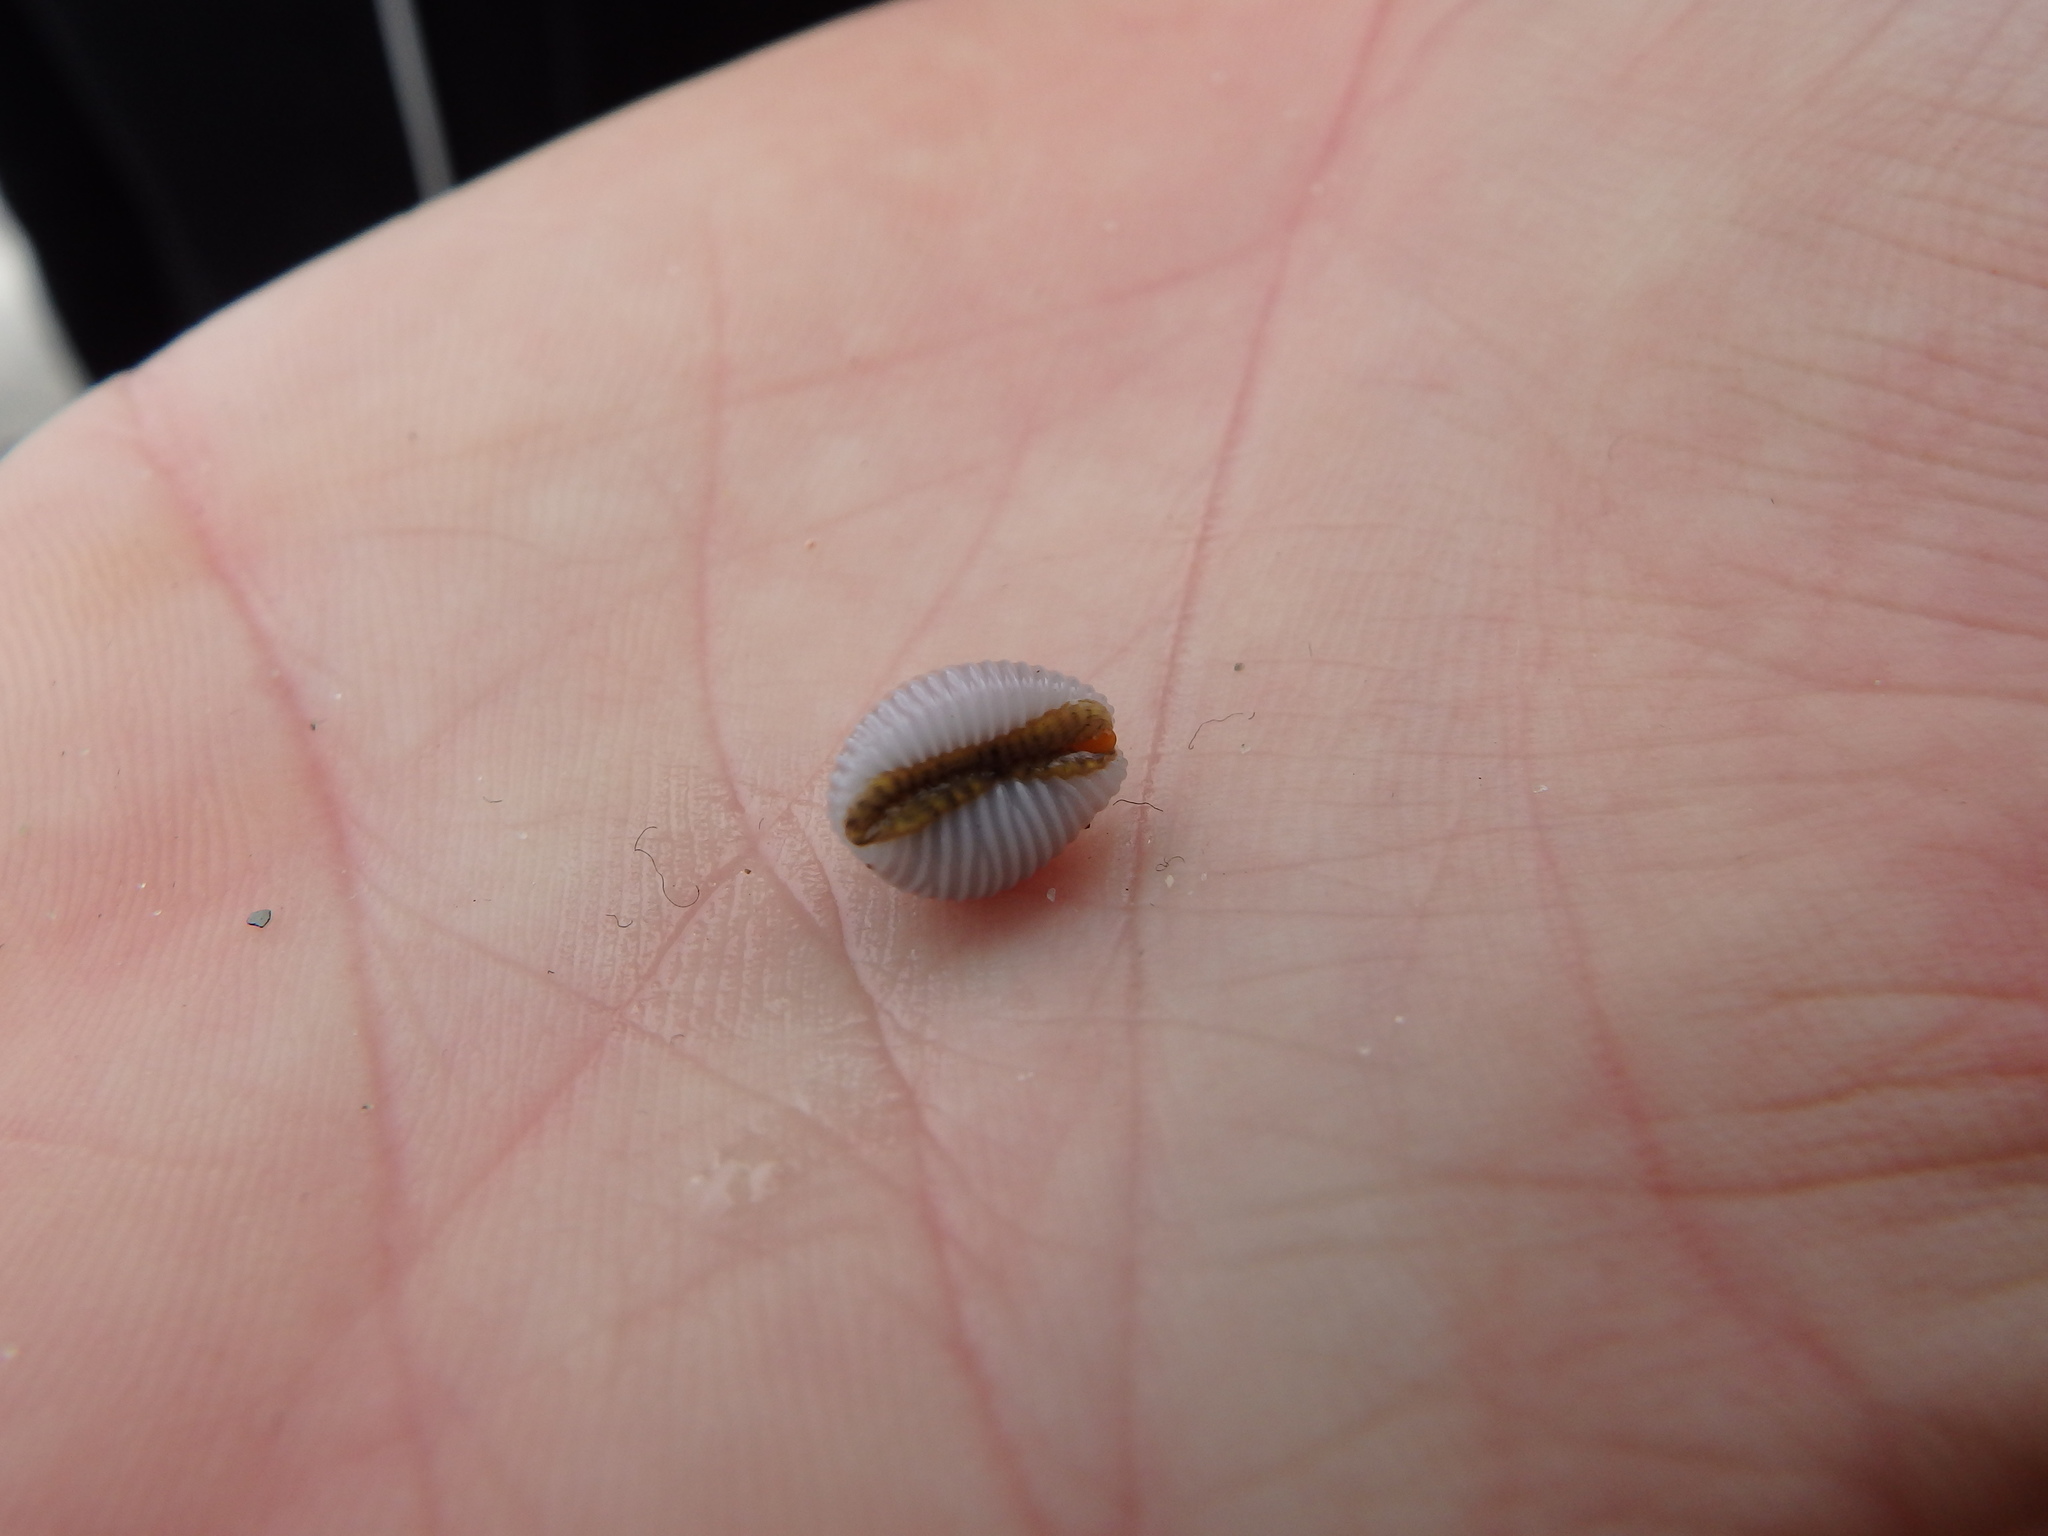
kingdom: Animalia
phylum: Mollusca
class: Gastropoda
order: Littorinimorpha
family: Triviidae
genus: Trivia
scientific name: Trivia arctica
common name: Arctic cowrie
